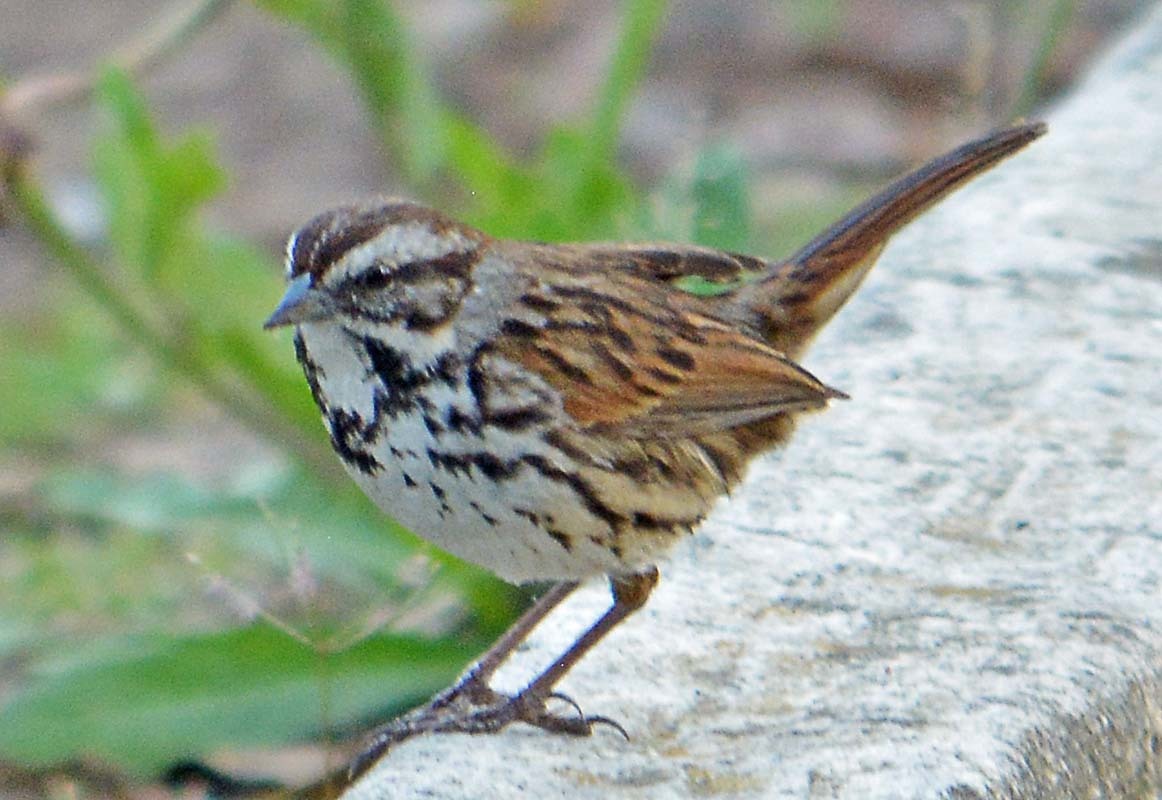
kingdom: Animalia
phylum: Chordata
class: Aves
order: Passeriformes
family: Passerellidae
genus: Melospiza
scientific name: Melospiza melodia
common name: Song sparrow
